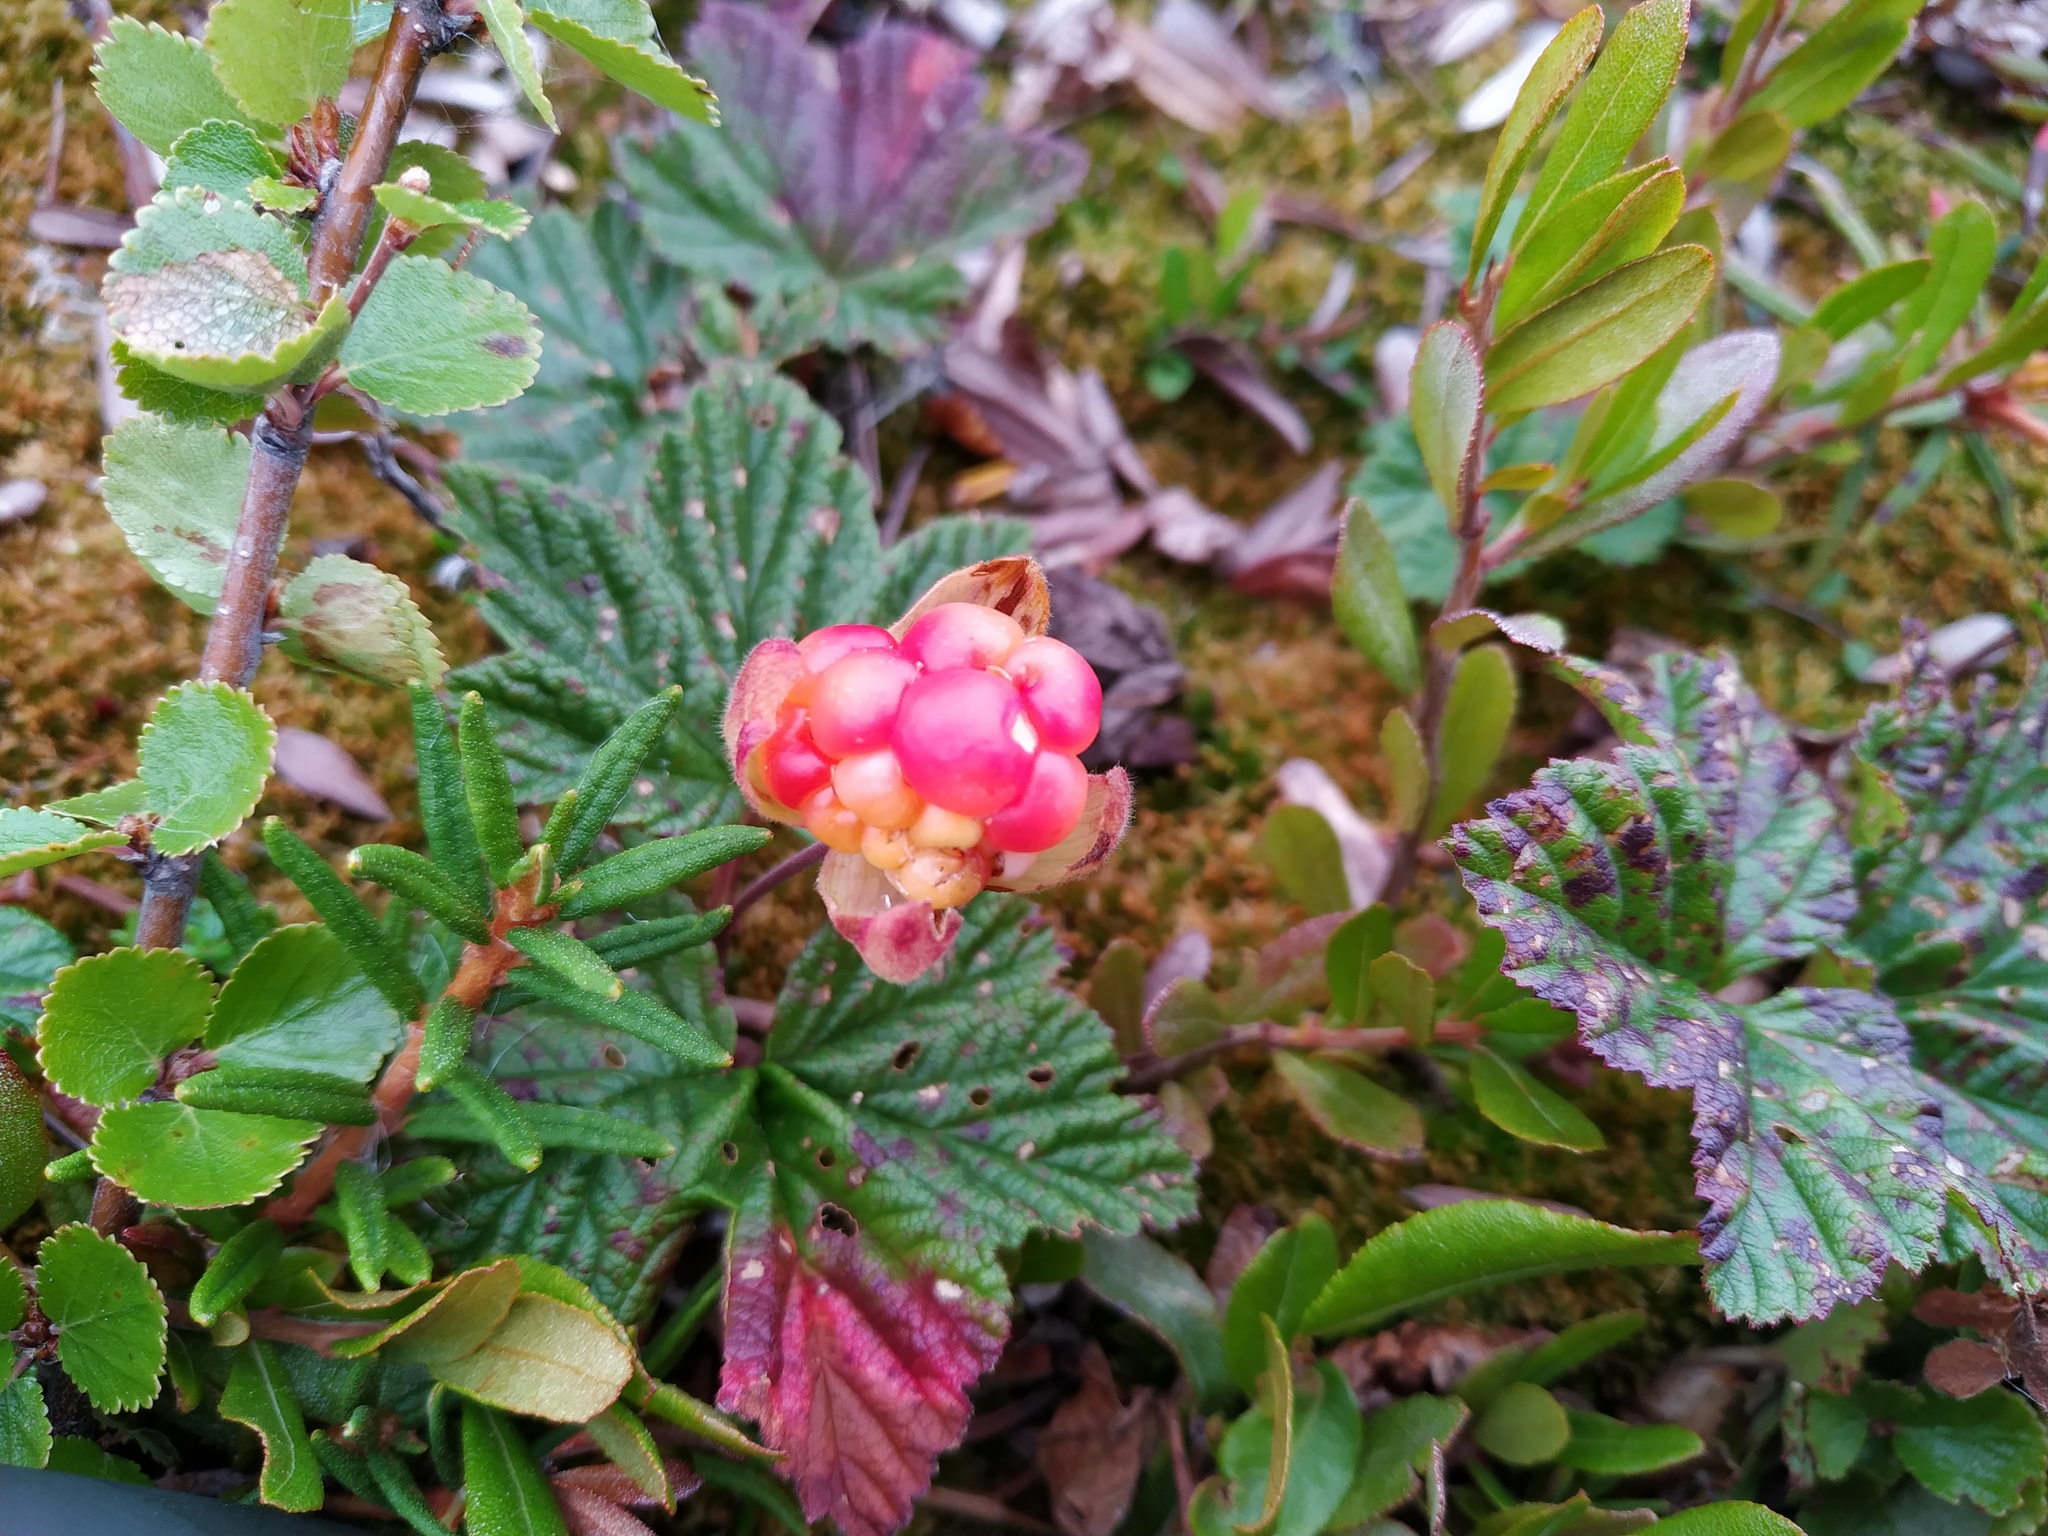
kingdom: Plantae
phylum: Tracheophyta
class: Magnoliopsida
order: Rosales
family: Rosaceae
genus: Rubus
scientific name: Rubus chamaemorus
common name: Cloudberry
